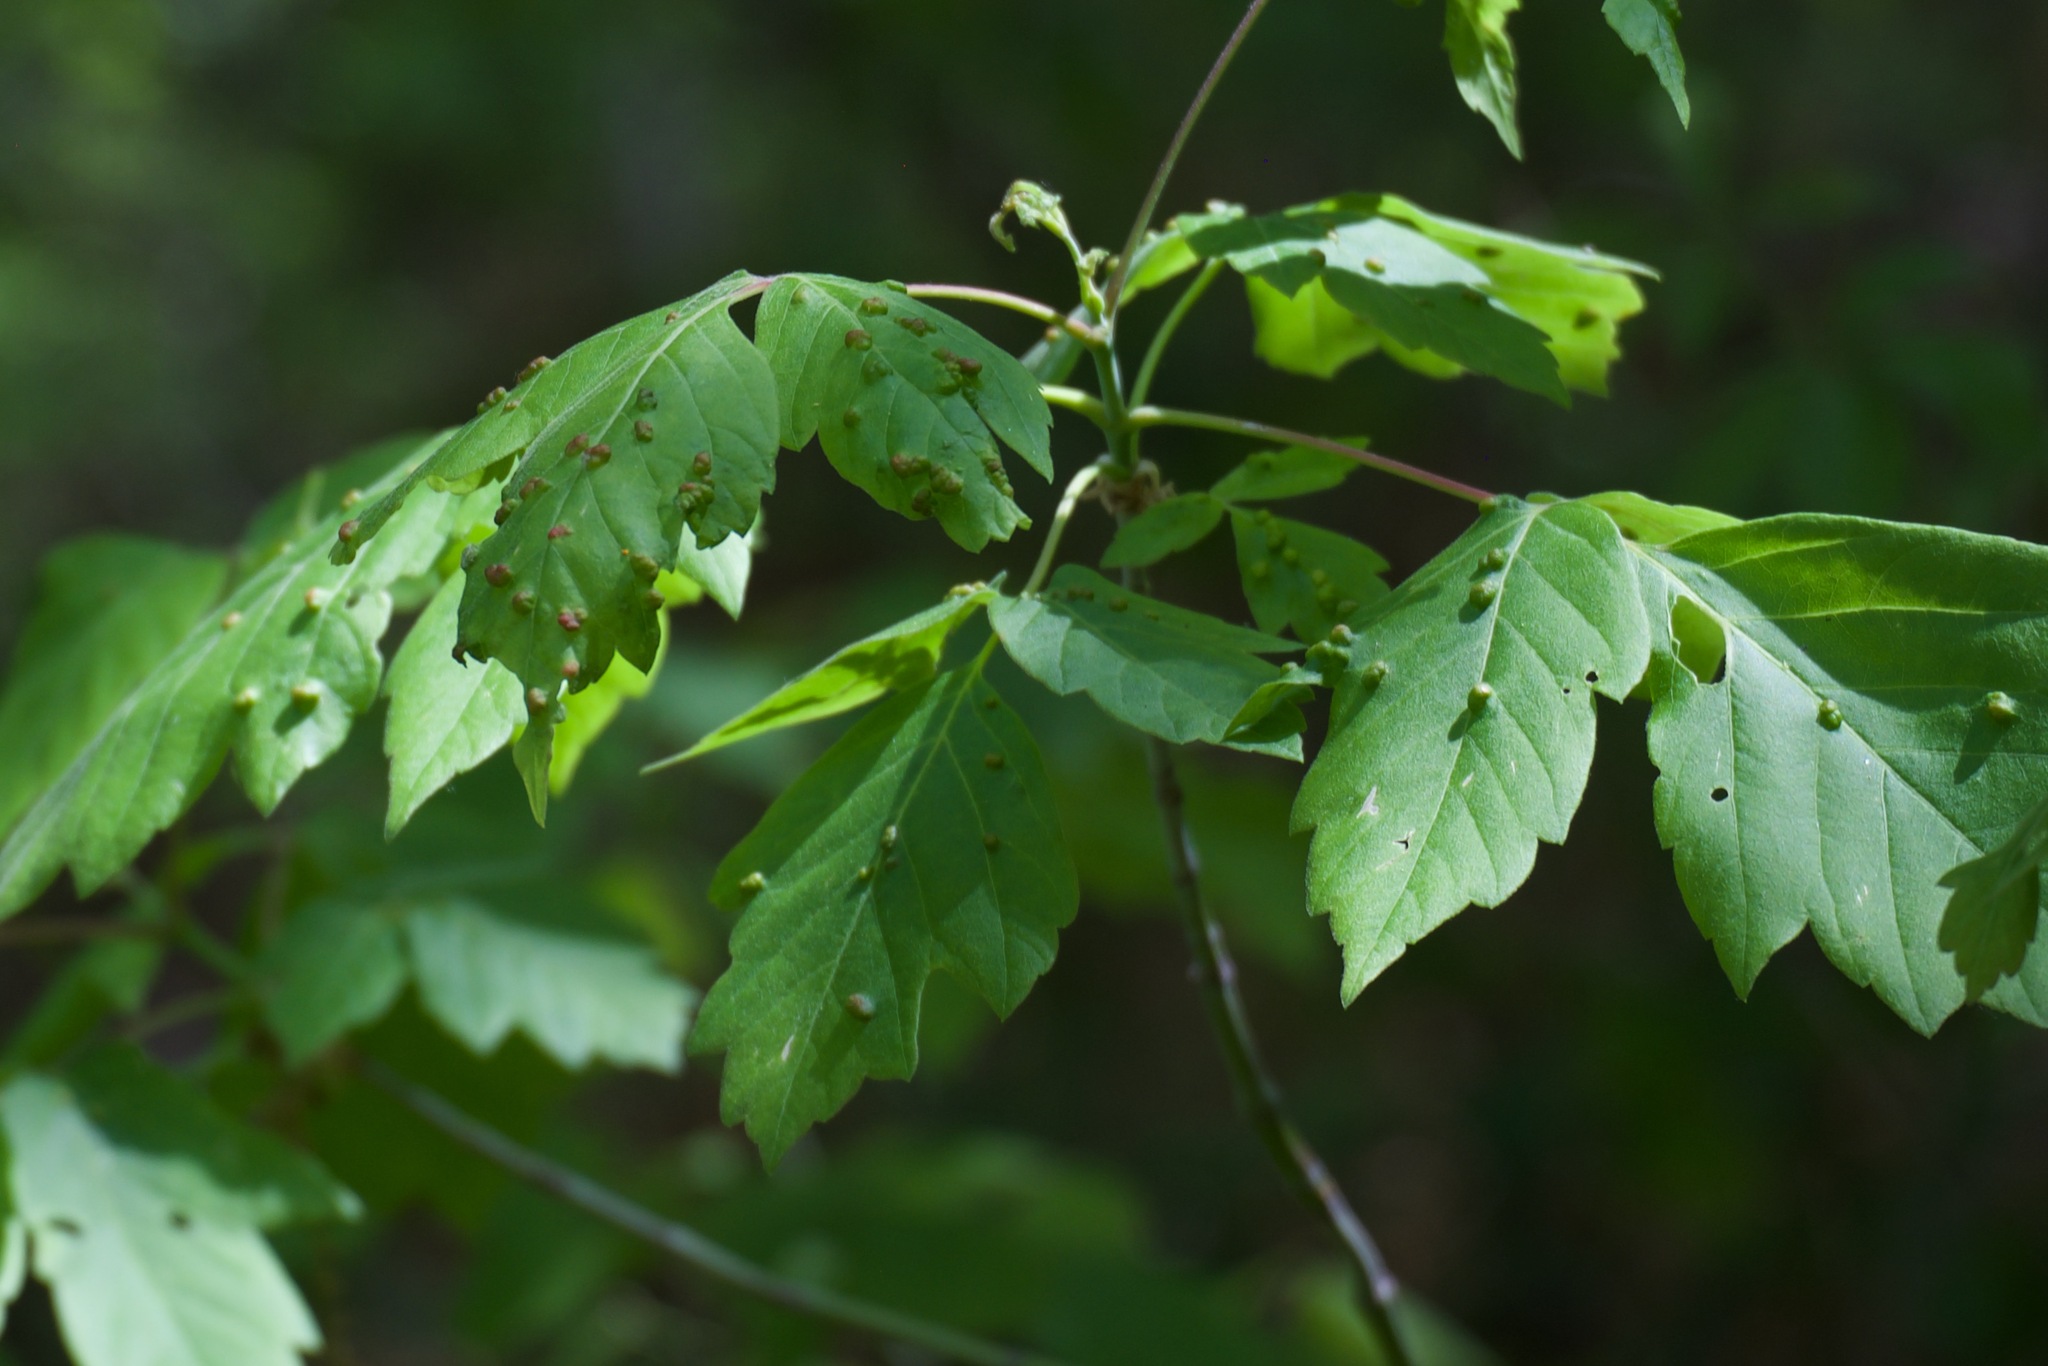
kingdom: Animalia
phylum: Arthropoda
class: Arachnida
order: Trombidiformes
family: Eriophyidae
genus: Aceria
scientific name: Aceria
